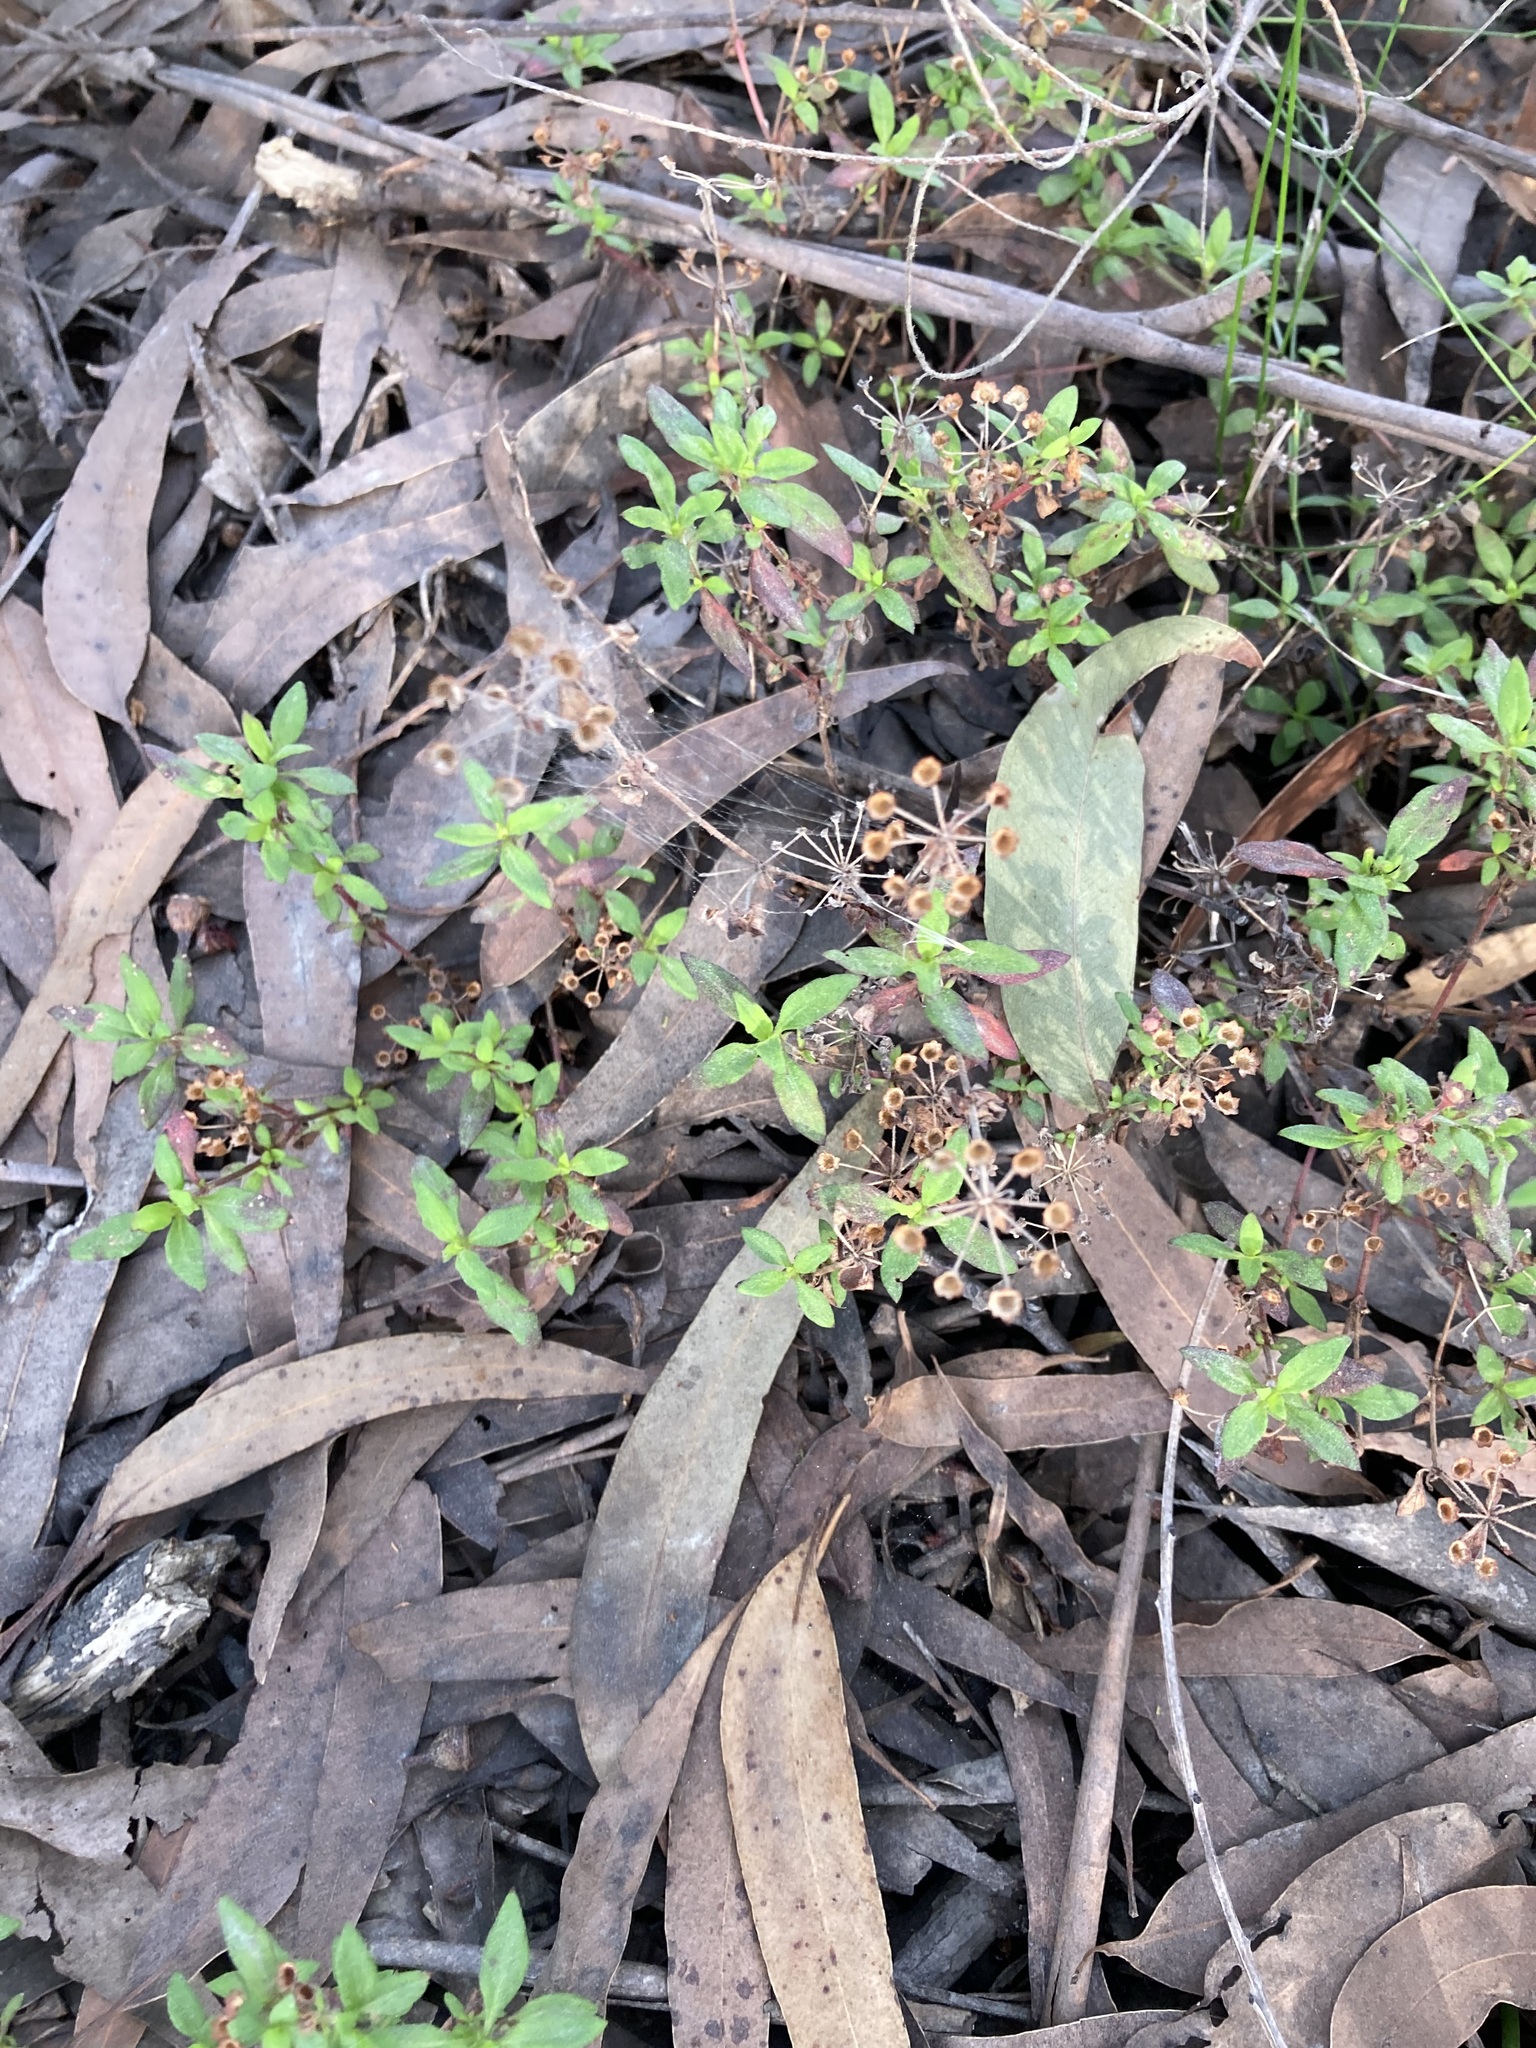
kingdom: Plantae
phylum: Tracheophyta
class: Magnoliopsida
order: Gentianales
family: Rubiaceae
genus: Pomax
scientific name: Pomax umbellata
